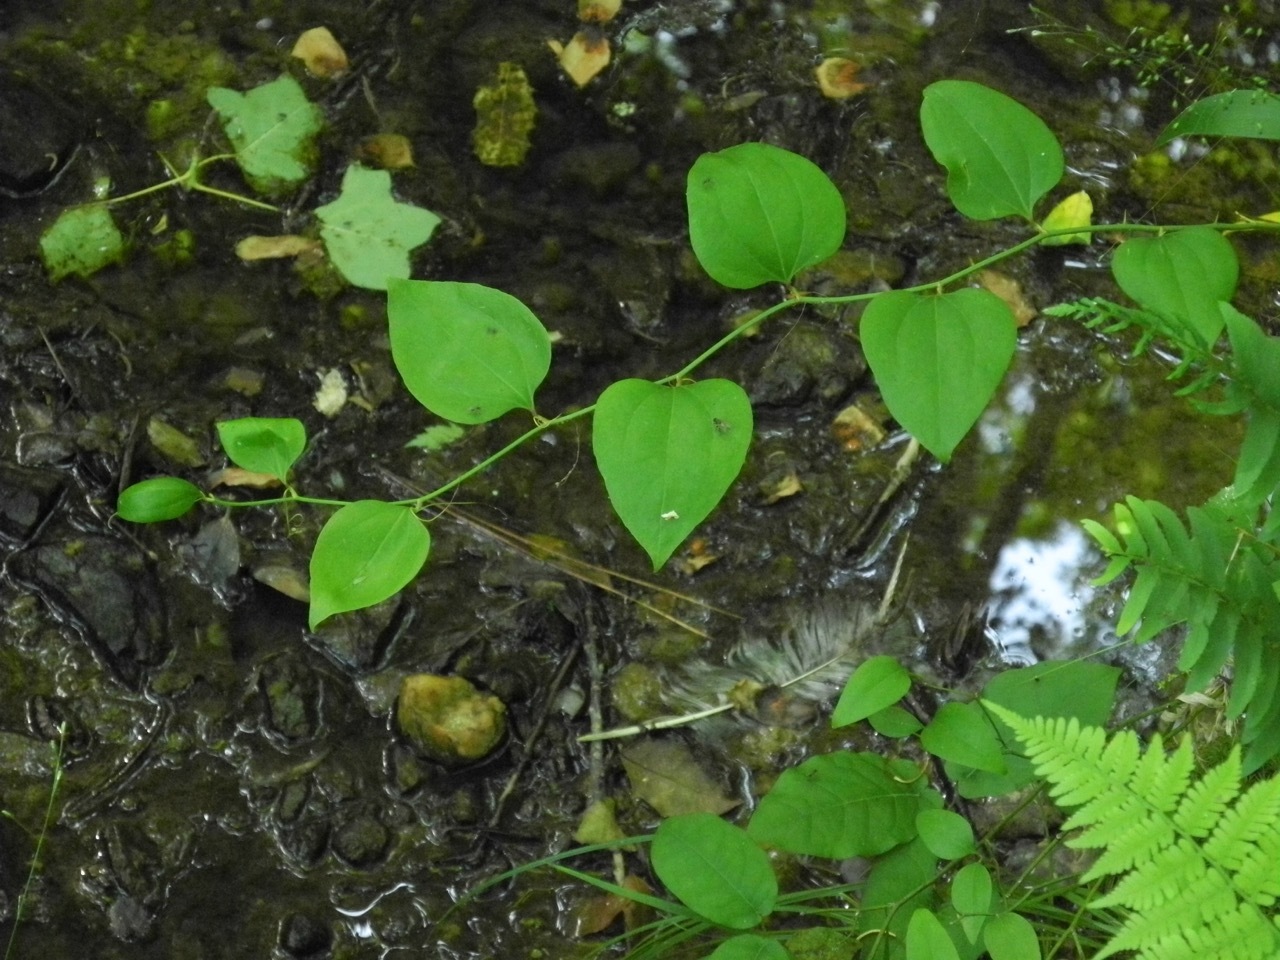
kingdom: Plantae
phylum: Tracheophyta
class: Liliopsida
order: Liliales
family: Smilacaceae
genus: Smilax
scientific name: Smilax rotundifolia
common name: Bullbriar
